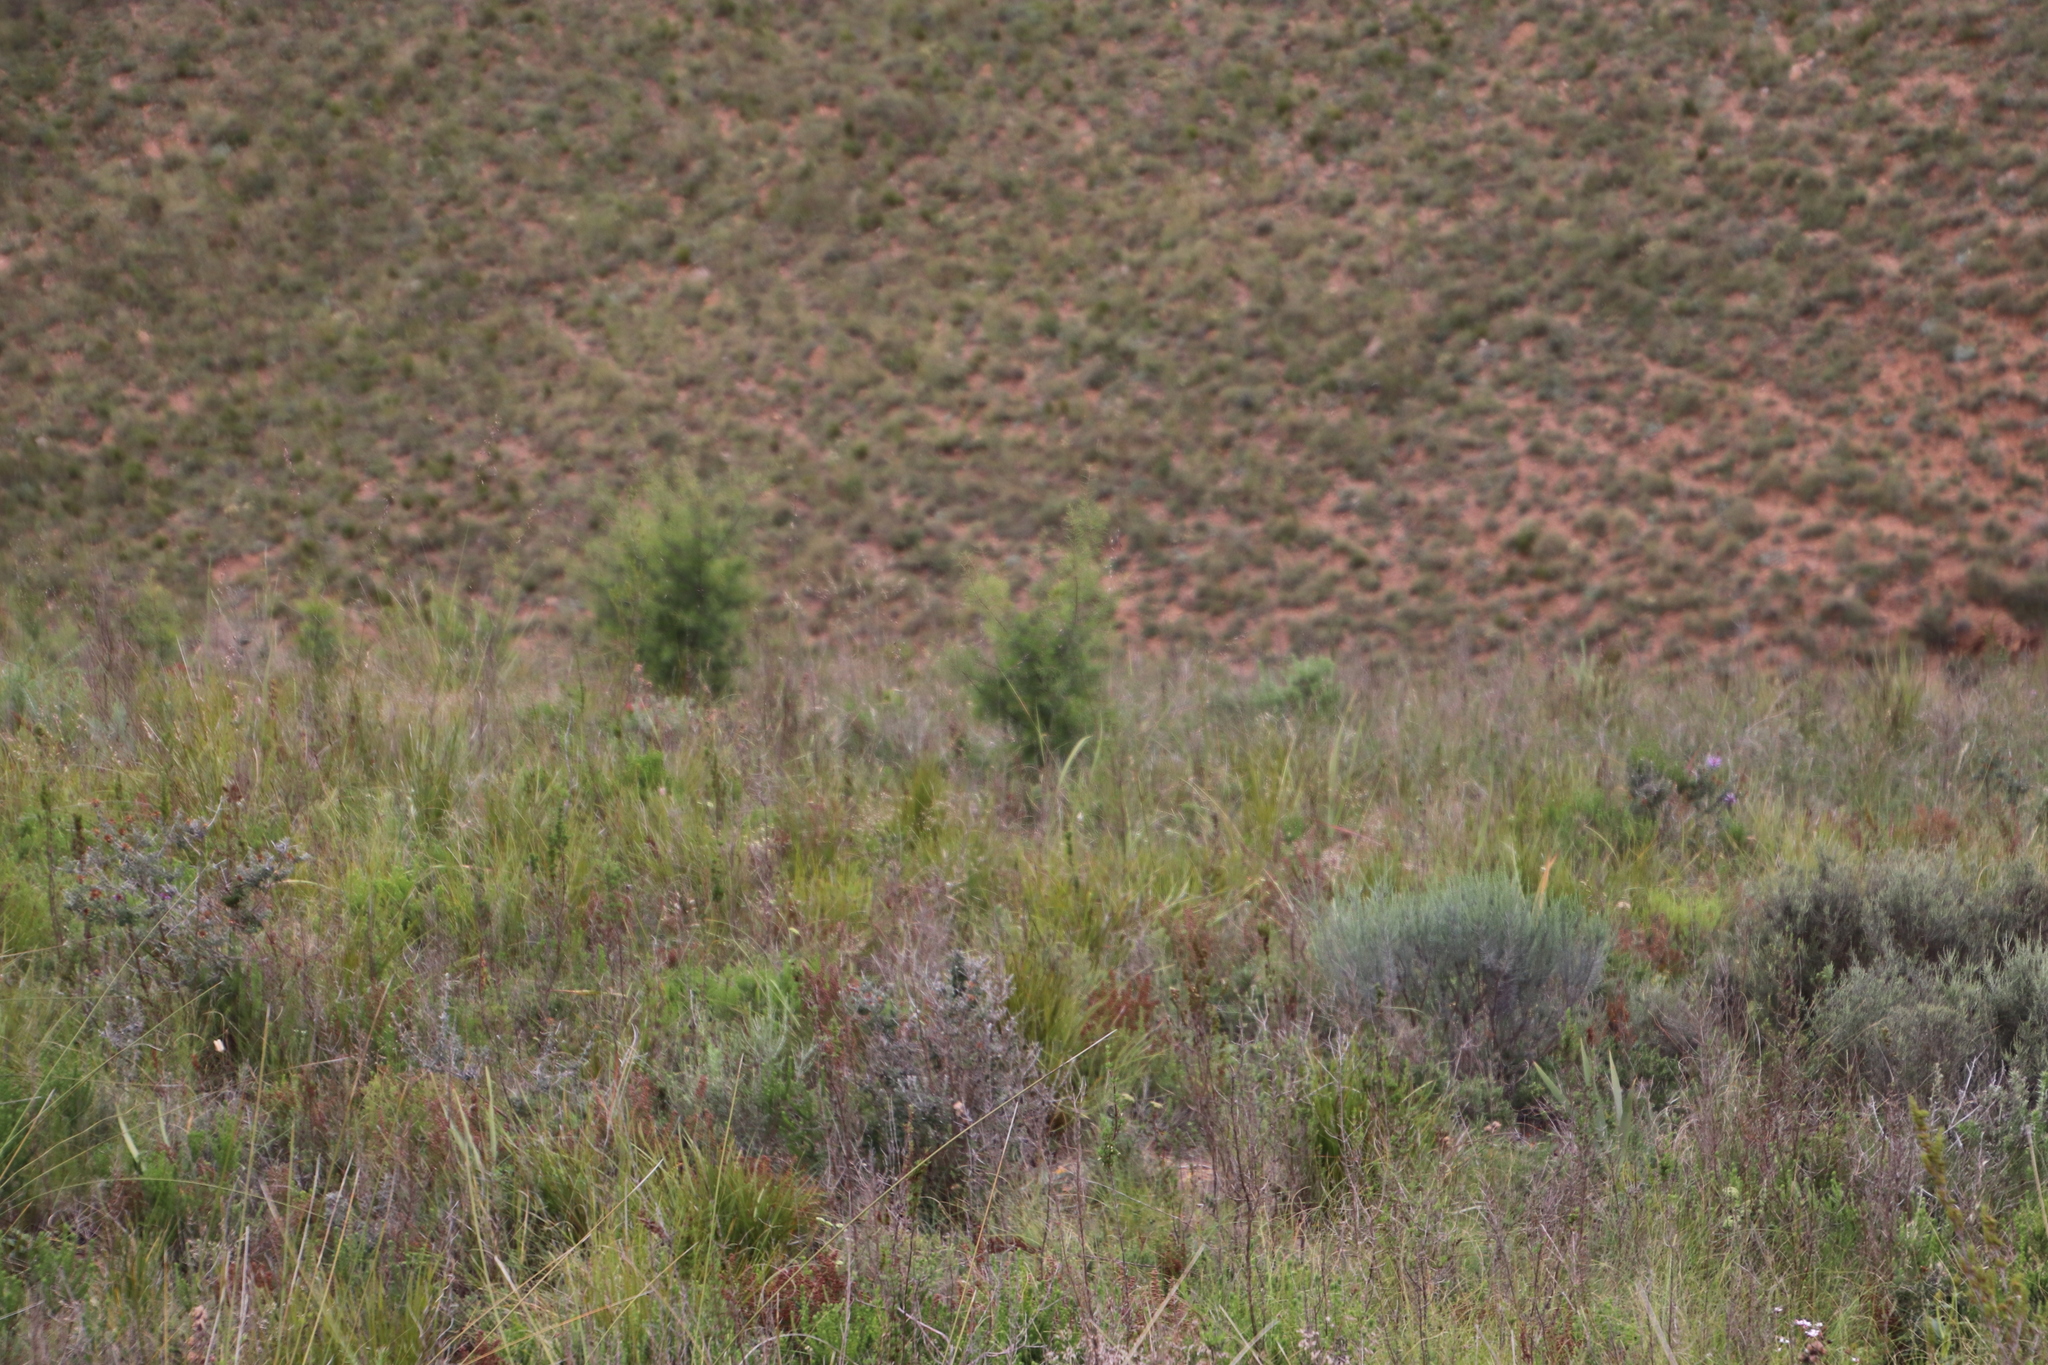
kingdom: Plantae
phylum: Tracheophyta
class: Magnoliopsida
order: Proteales
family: Proteaceae
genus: Hakea
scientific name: Hakea sericea
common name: Needle bush
